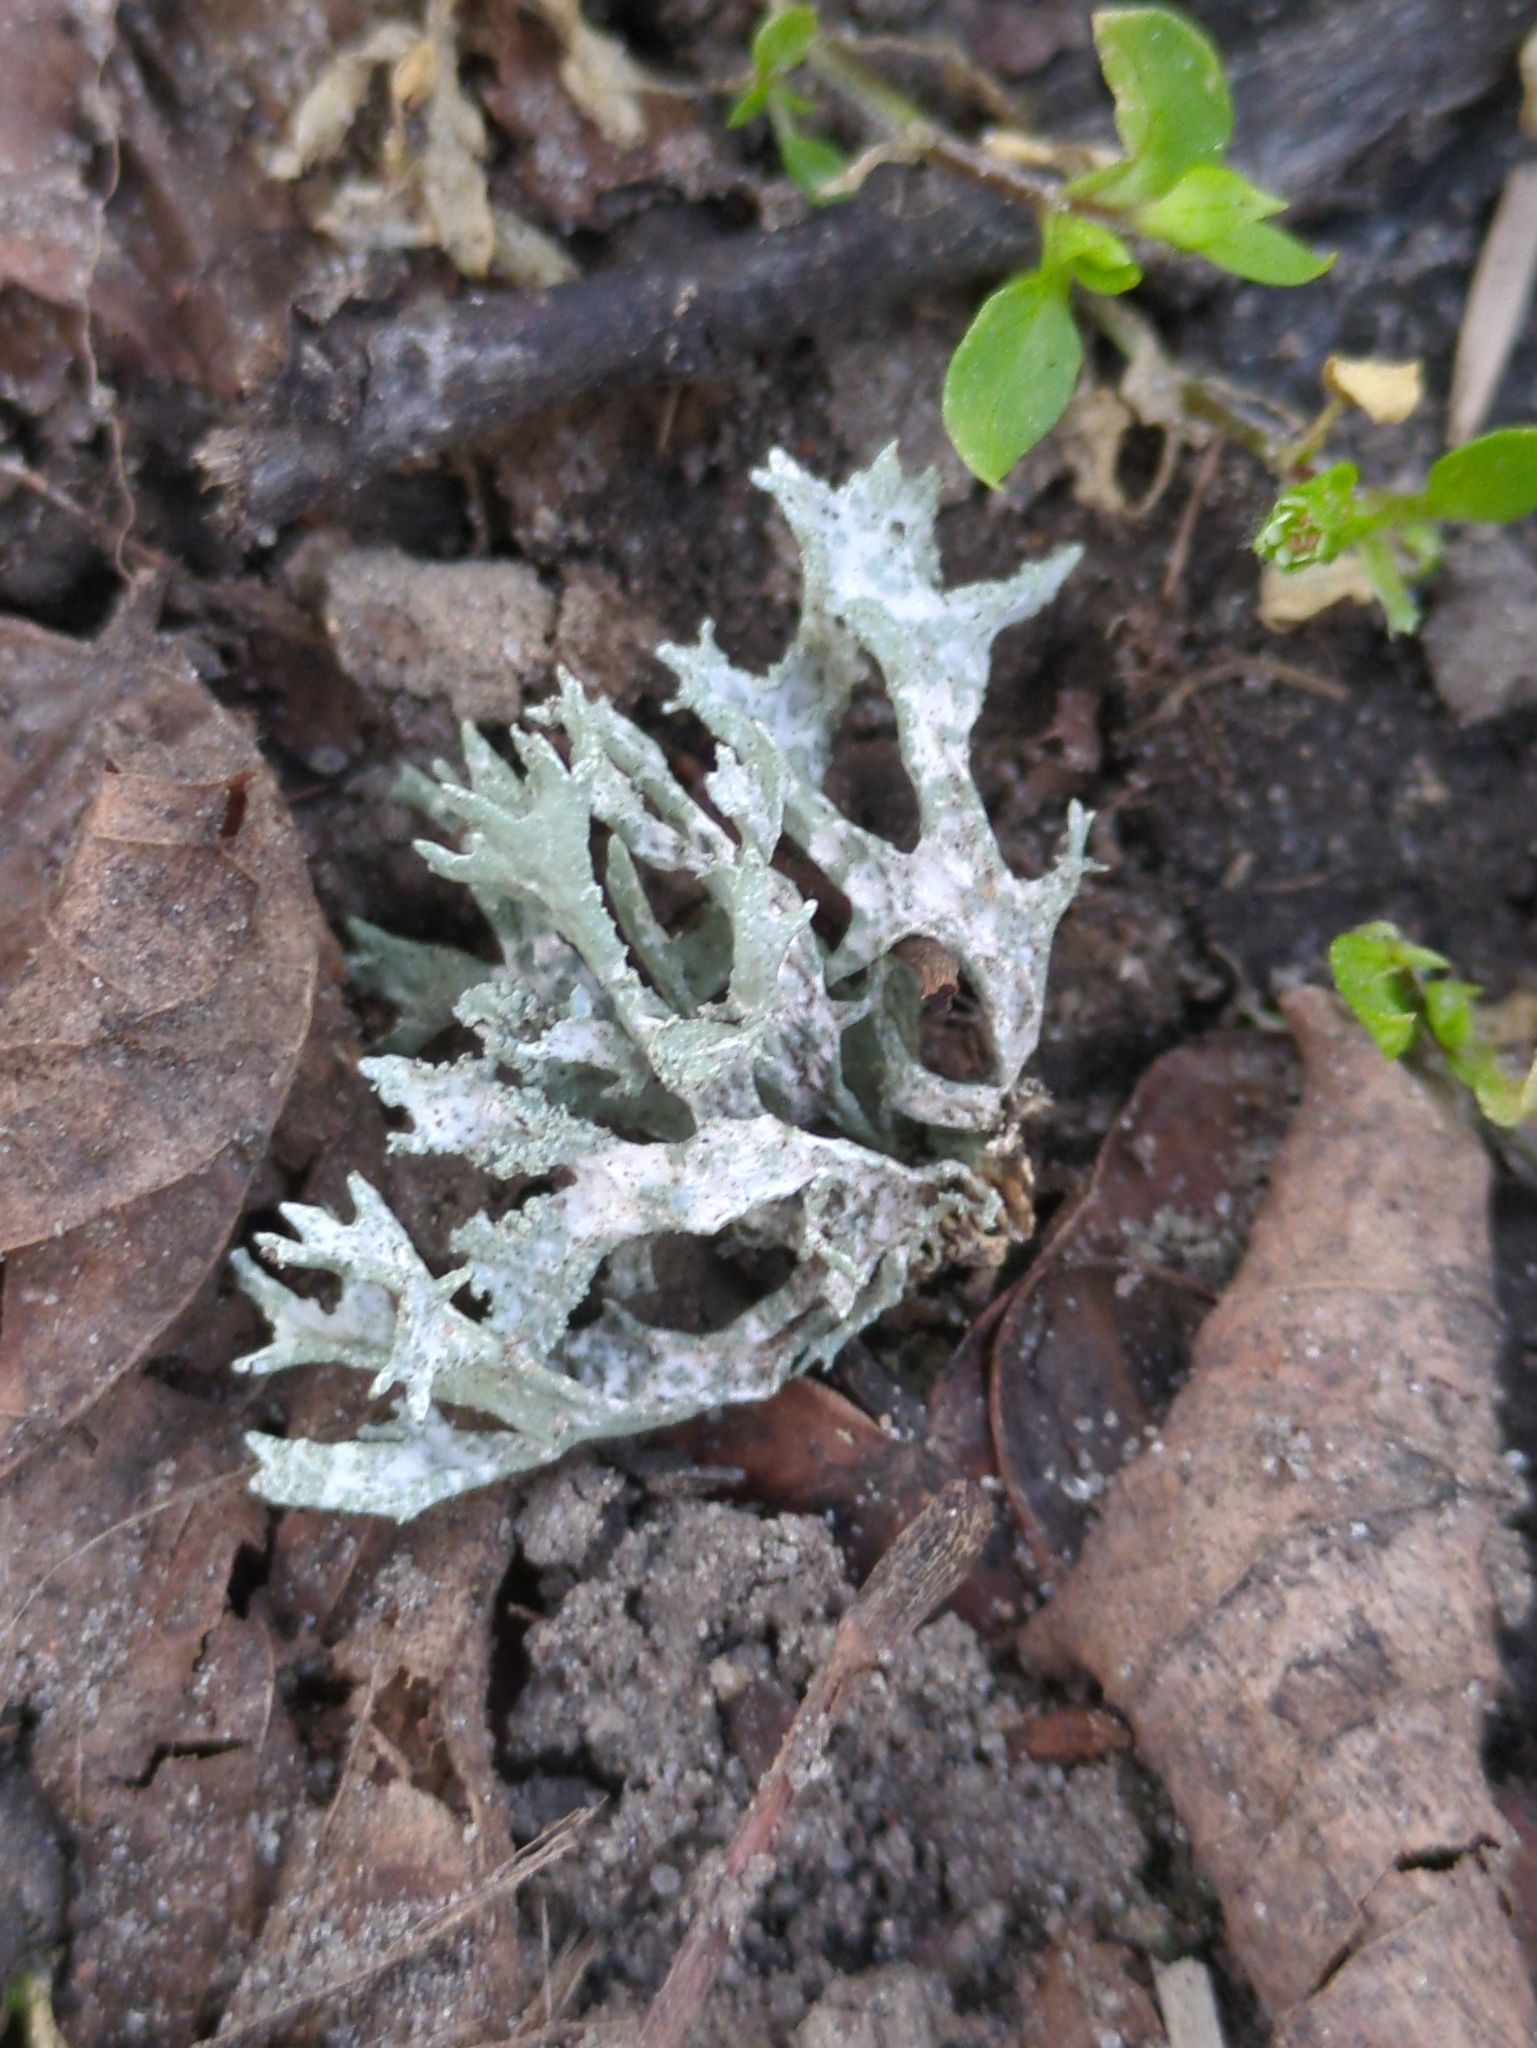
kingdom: Fungi
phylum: Ascomycota
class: Lecanoromycetes
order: Lecanorales
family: Parmeliaceae
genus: Evernia
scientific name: Evernia prunastri
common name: Oak moss
